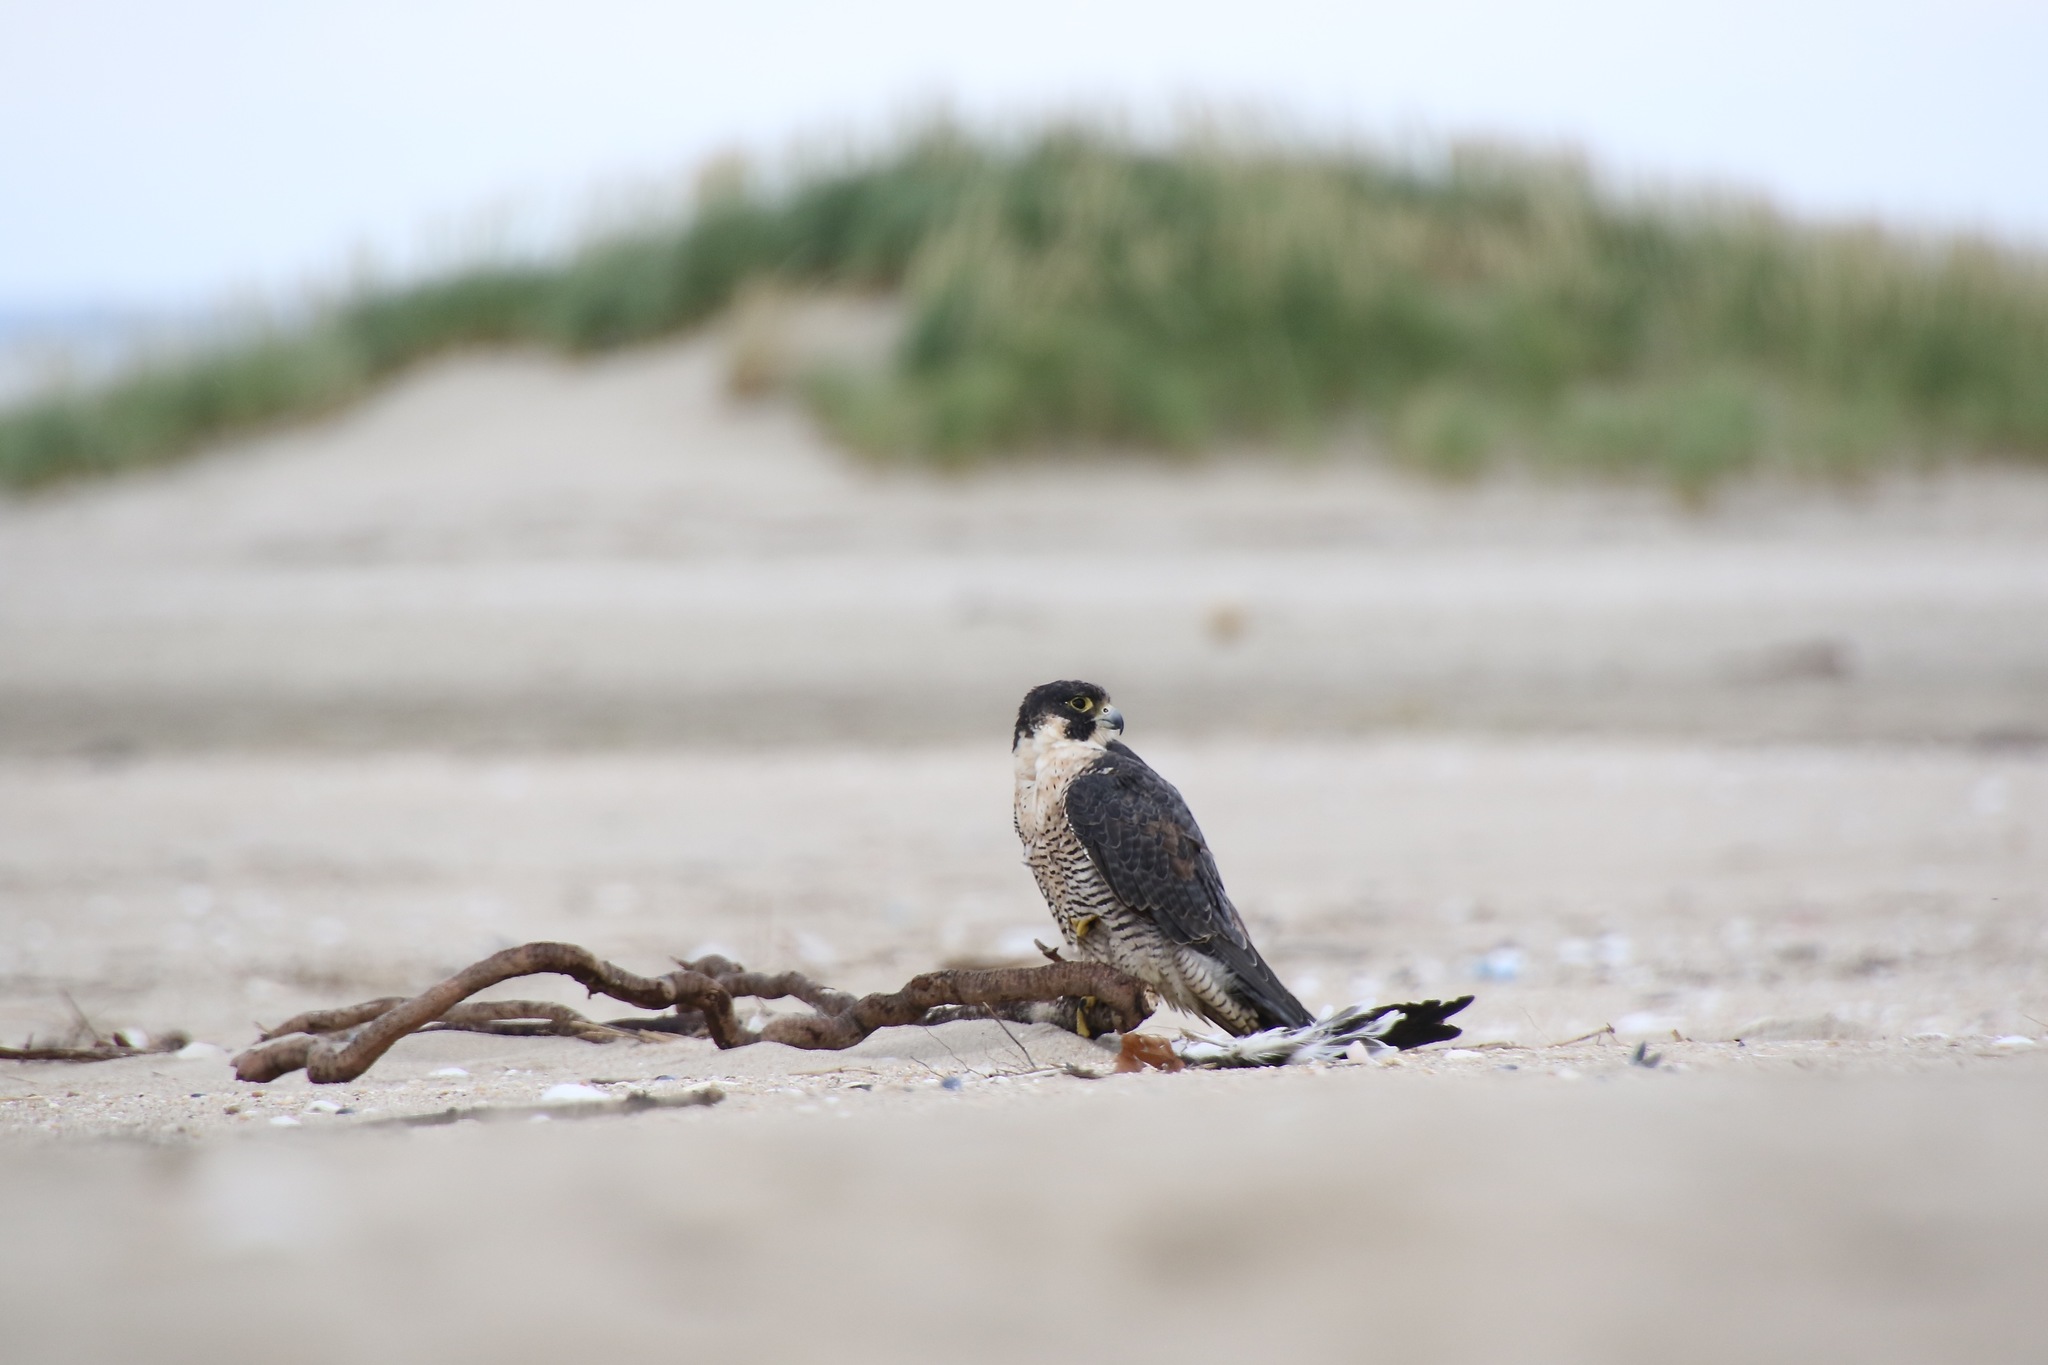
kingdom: Animalia
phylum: Chordata
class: Aves
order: Falconiformes
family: Falconidae
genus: Falco
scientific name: Falco peregrinus
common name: Peregrine falcon
